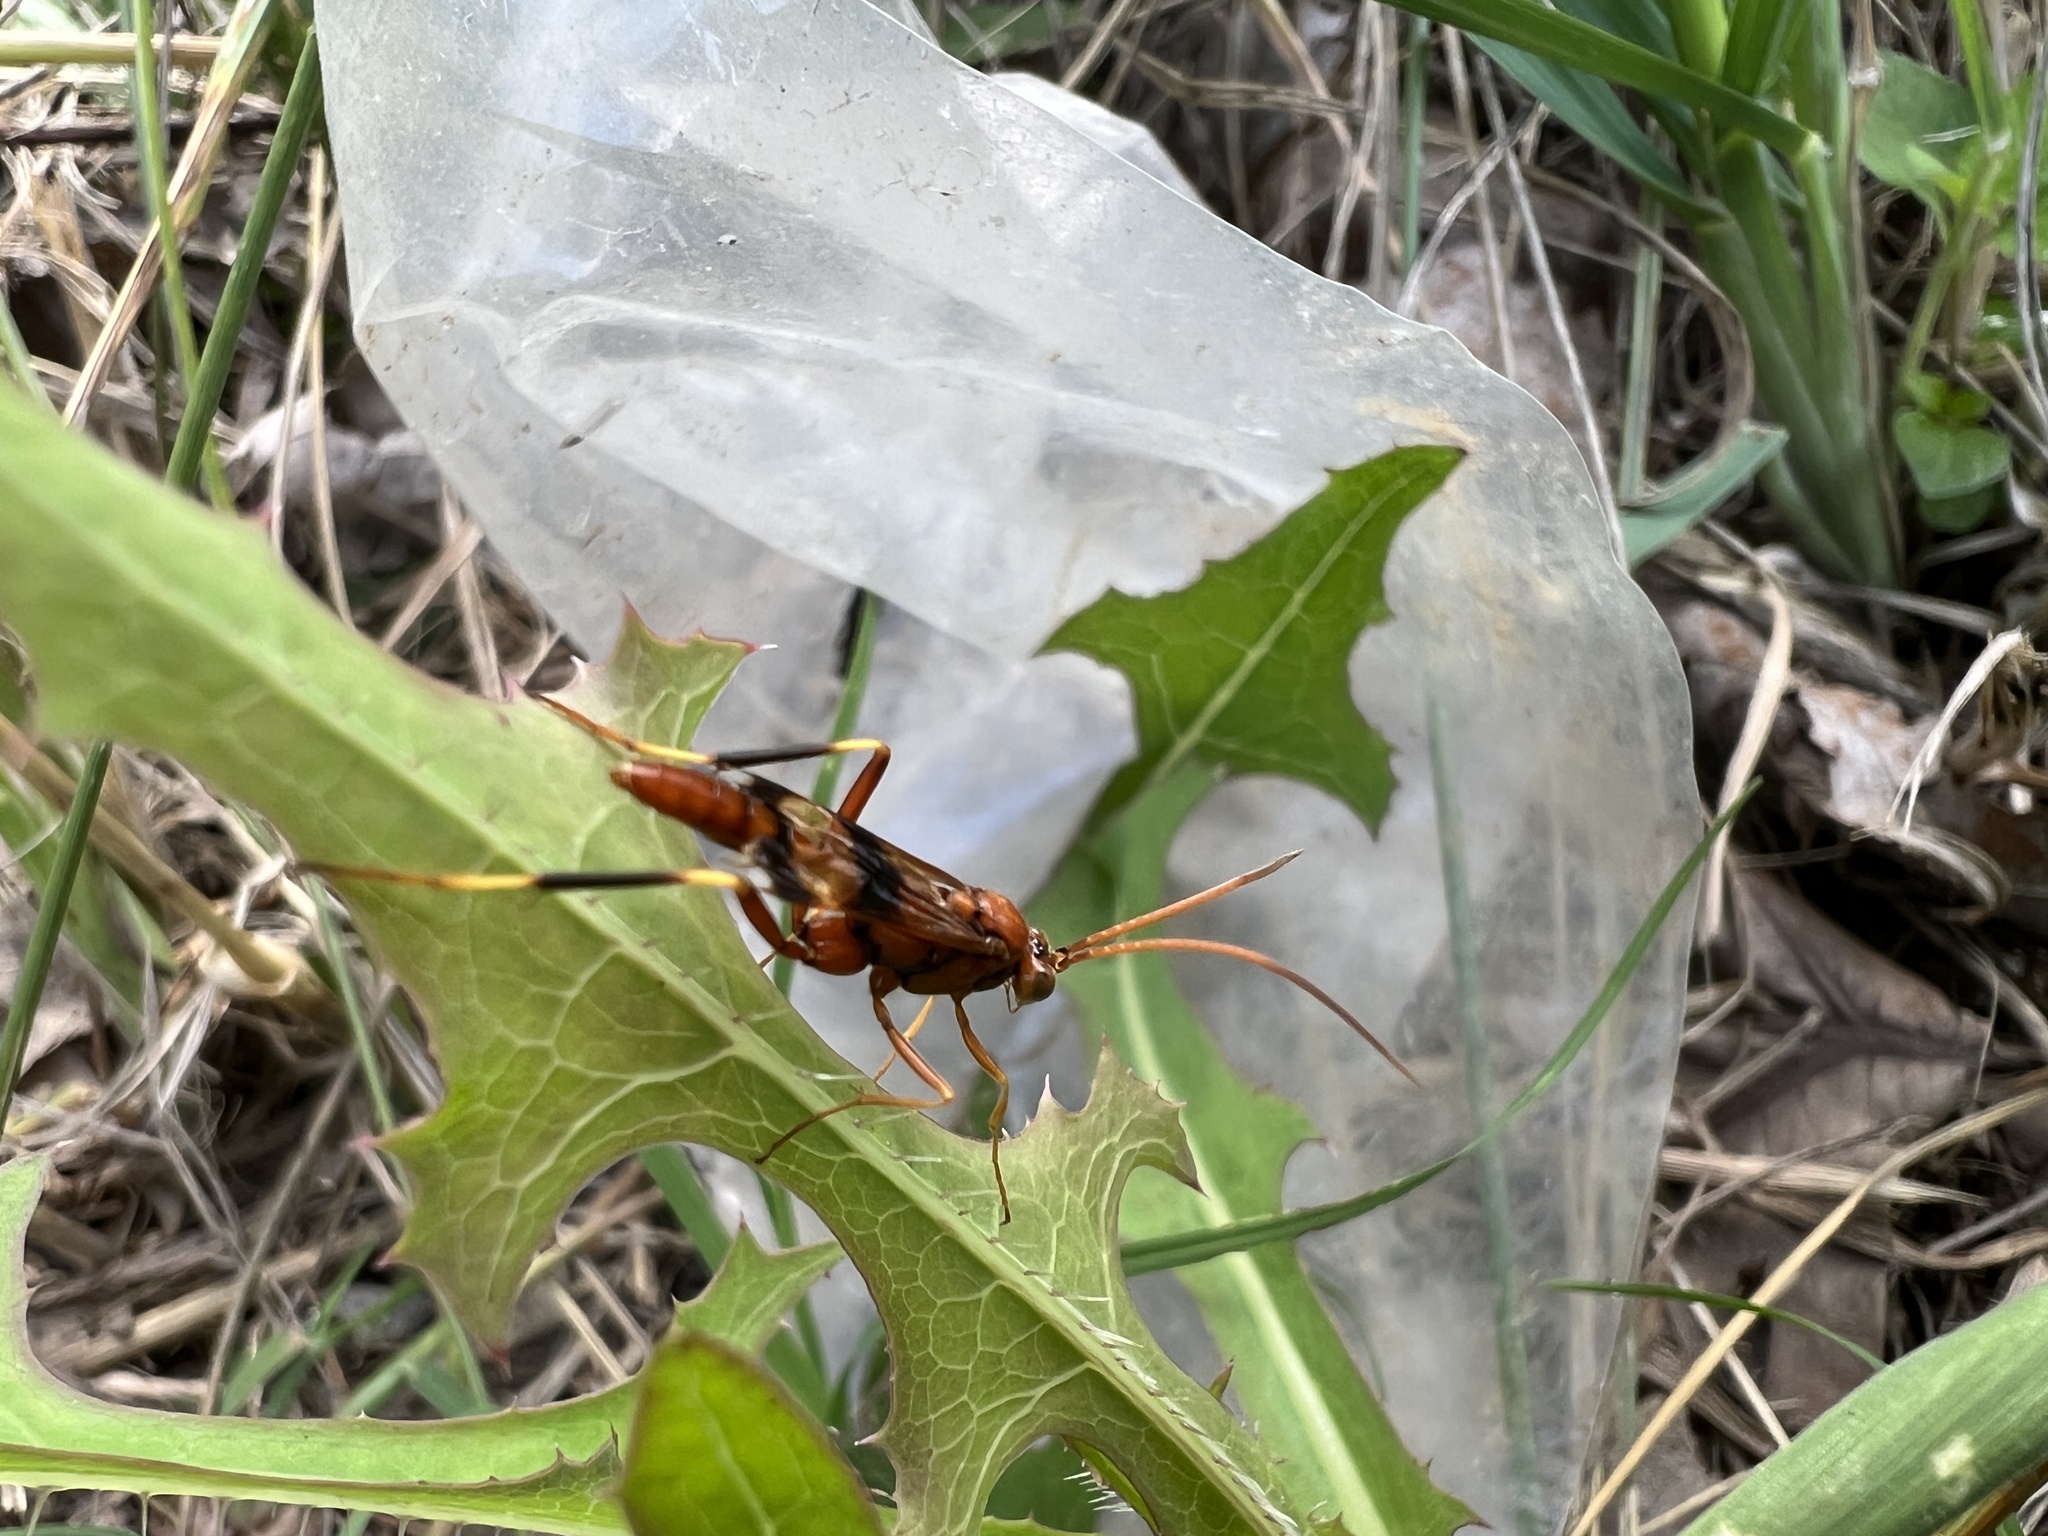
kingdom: Animalia
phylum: Arthropoda
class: Insecta
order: Hymenoptera
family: Ichneumonidae
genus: Compsocryptus
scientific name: Compsocryptus texensis
